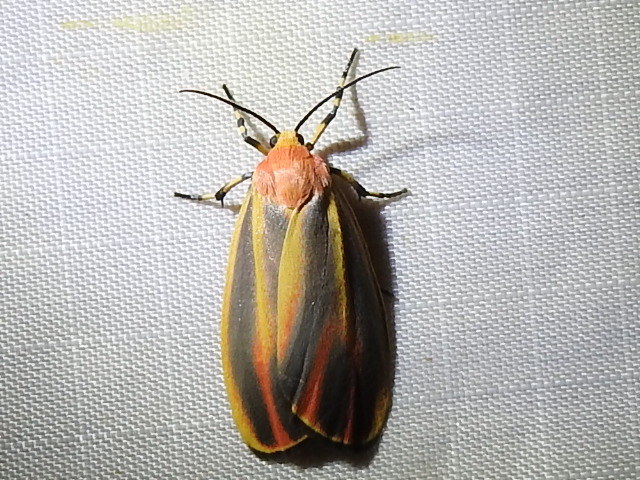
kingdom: Animalia
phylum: Arthropoda
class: Insecta
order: Lepidoptera
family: Erebidae
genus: Hypoprepia
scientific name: Hypoprepia fucosa
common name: Painted lichen moth
